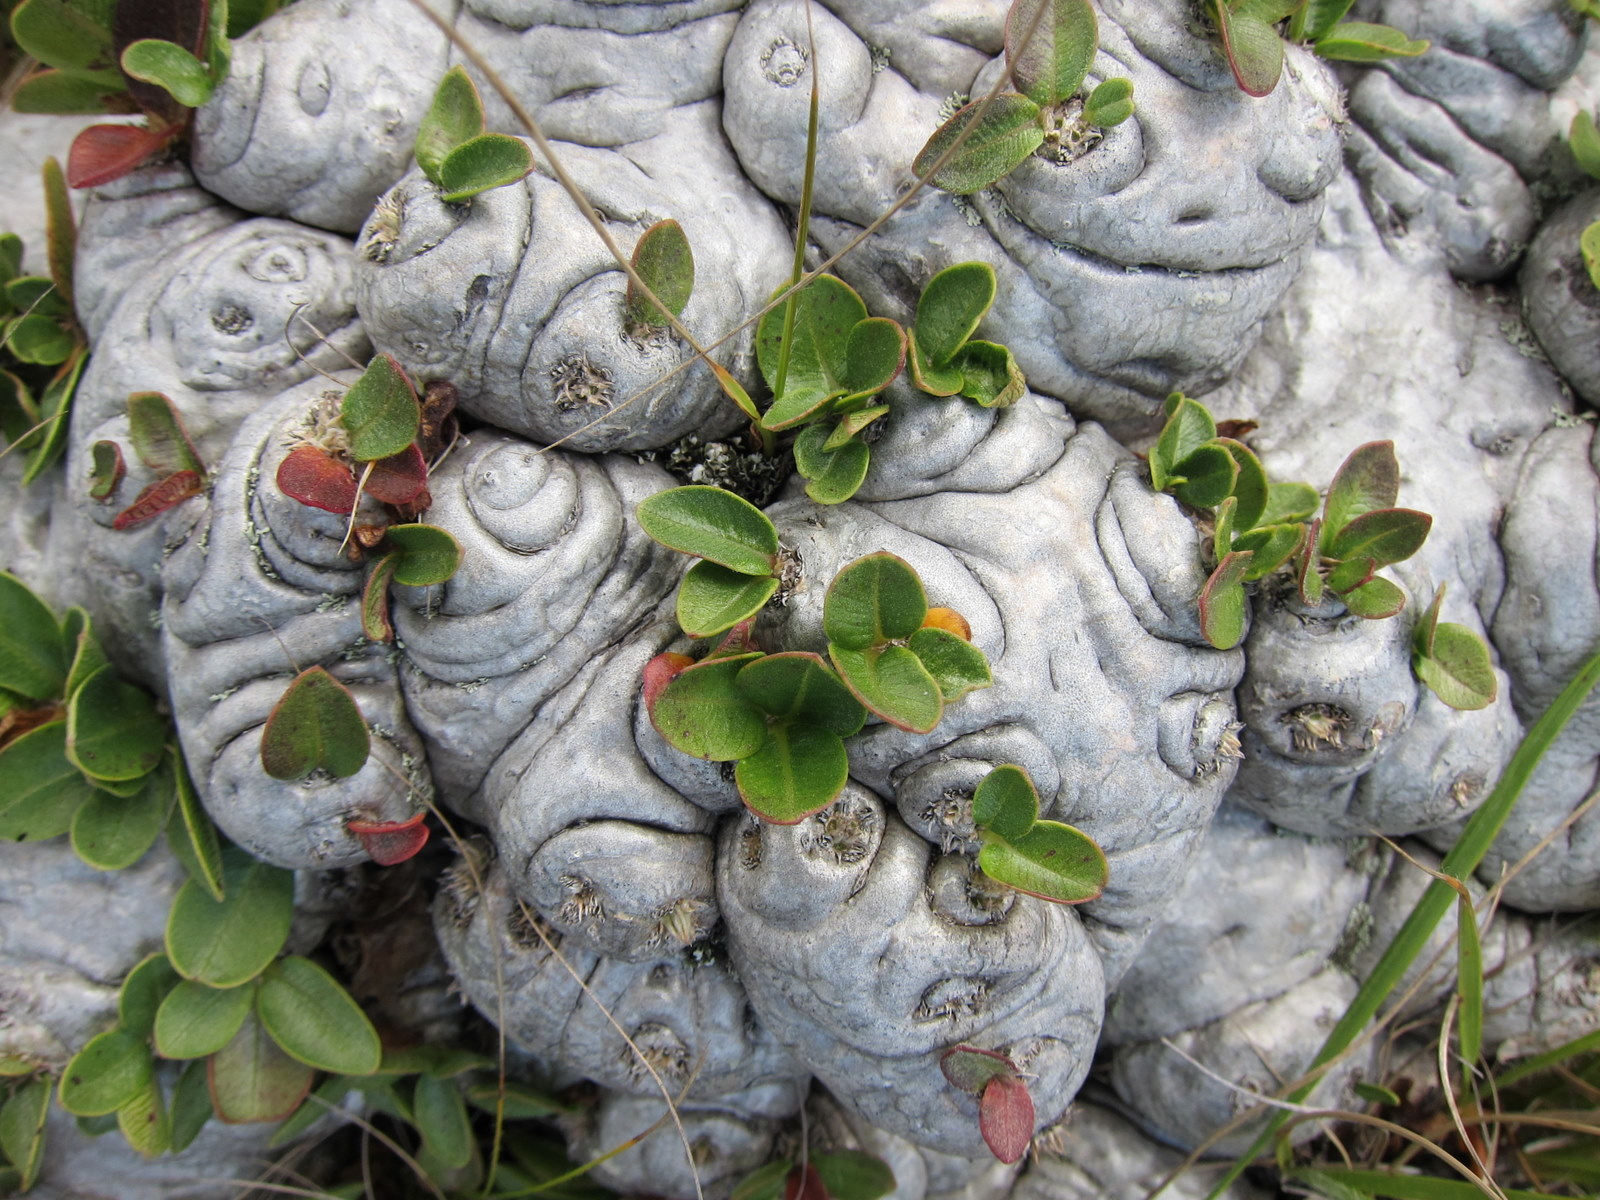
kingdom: Plantae
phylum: Tracheophyta
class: Magnoliopsida
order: Gentianales
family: Apocynaceae
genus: Pachypodium
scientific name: Pachypodium brevicaule
